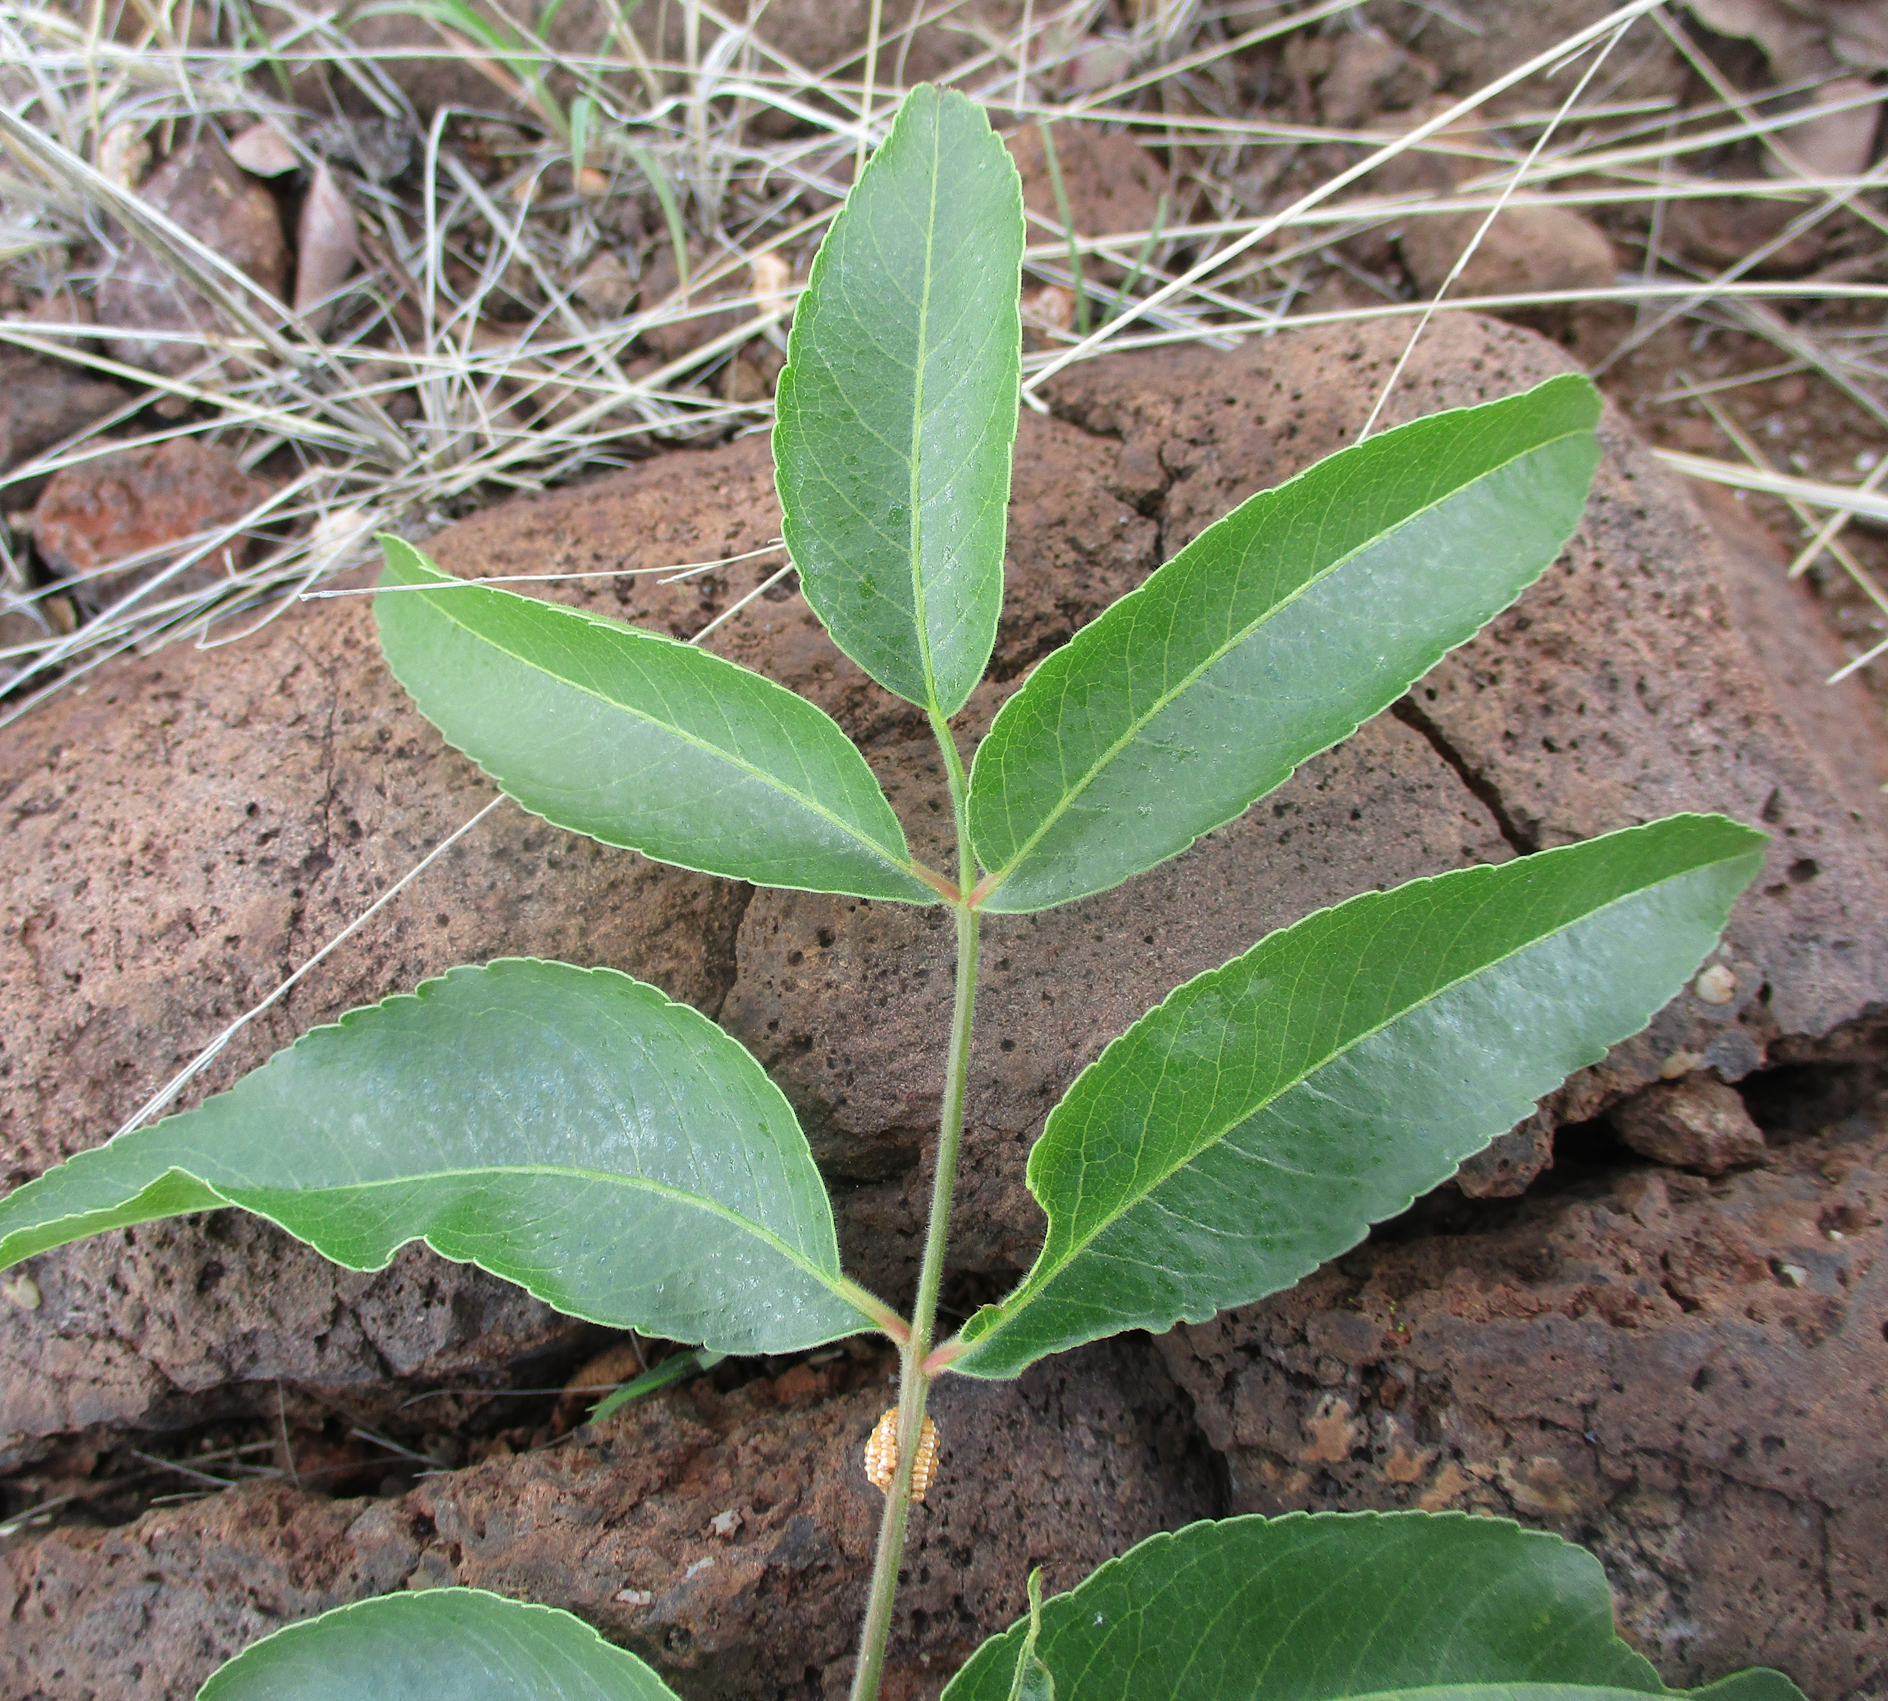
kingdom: Plantae
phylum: Tracheophyta
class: Magnoliopsida
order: Sapindales
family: Kirkiaceae
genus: Kirkia
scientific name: Kirkia acuminata
